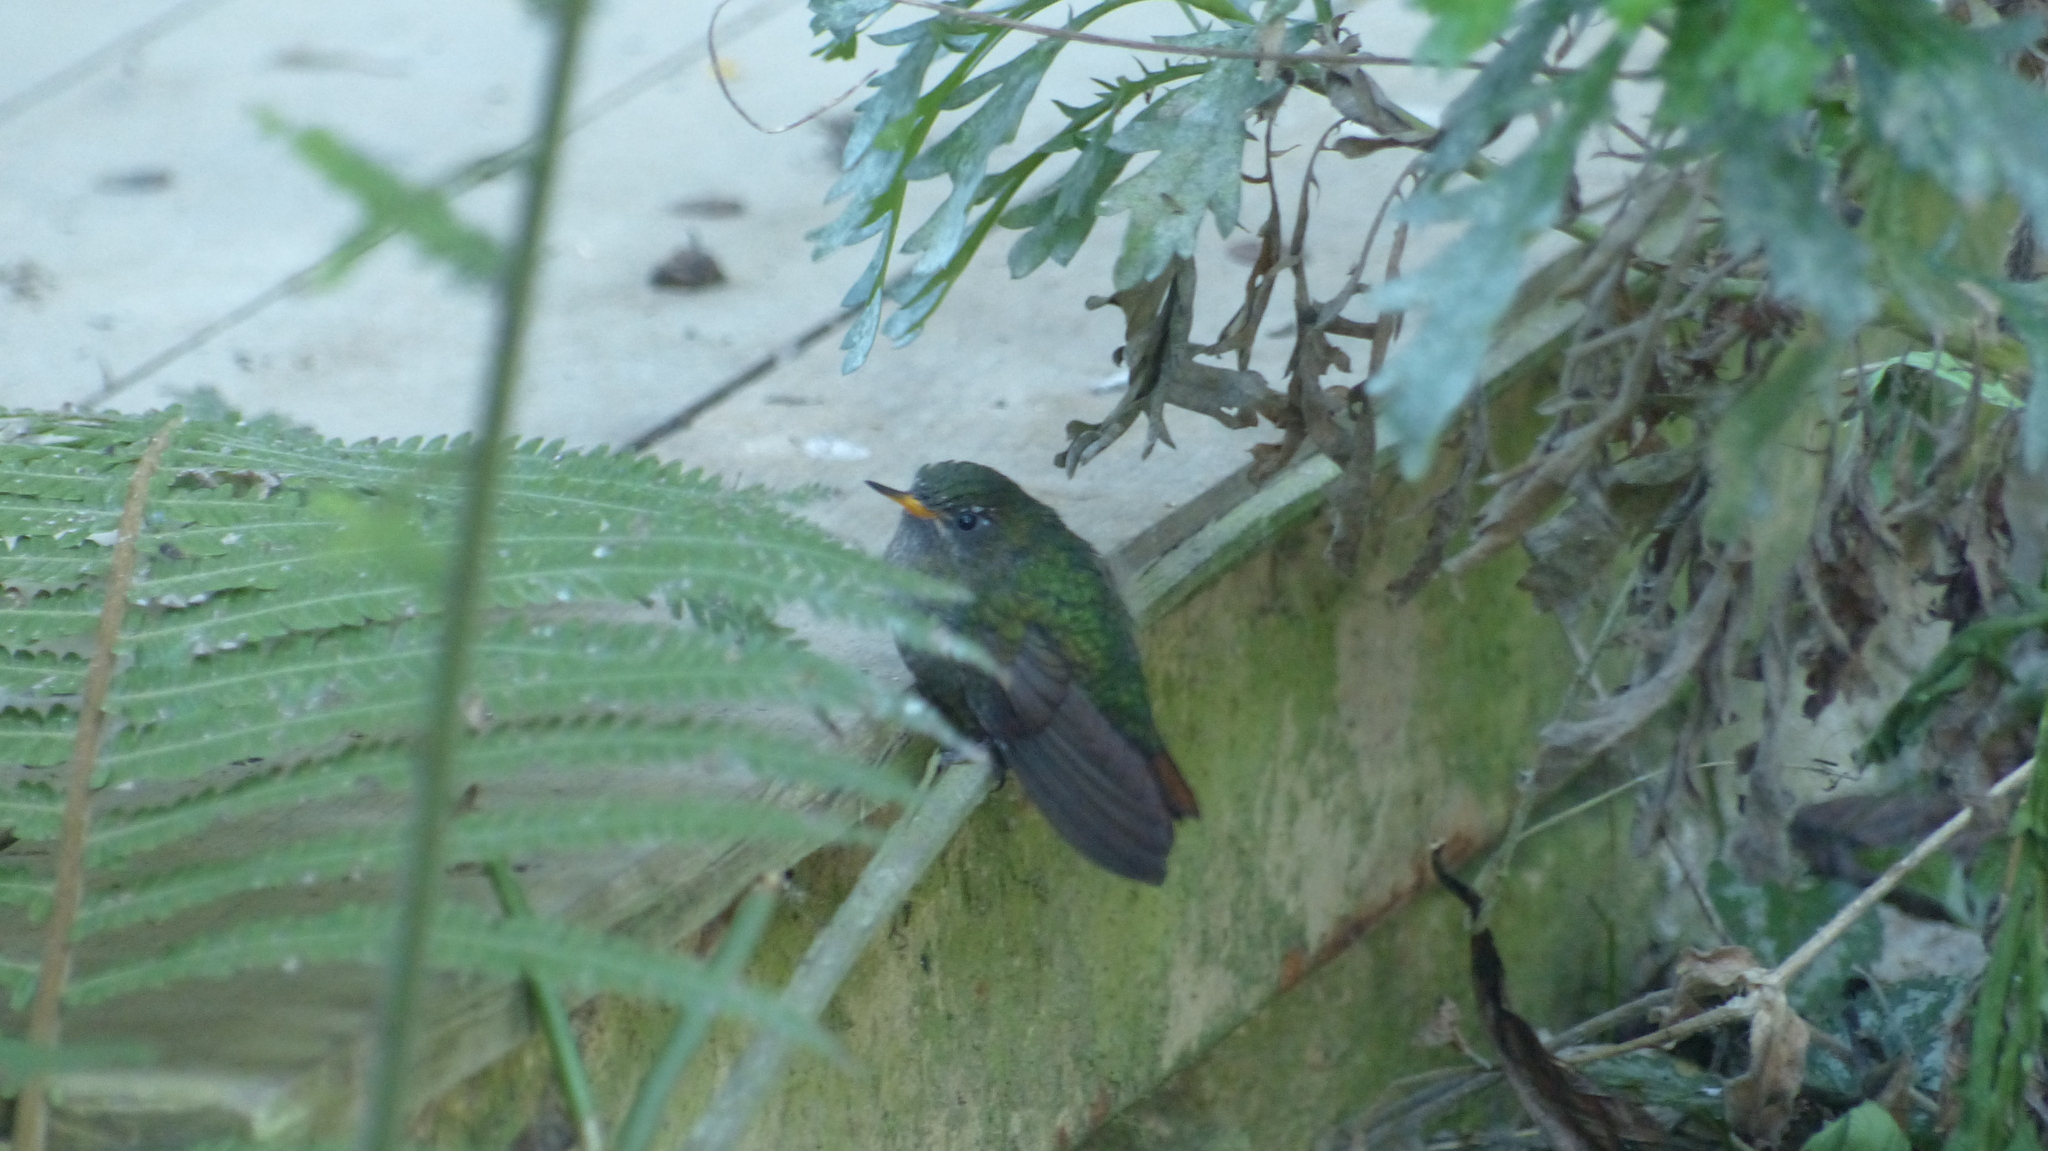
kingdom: Animalia
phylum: Chordata
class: Aves
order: Apodiformes
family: Trochilidae
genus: Metallura
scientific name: Metallura tyrianthina
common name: Tyrian metaltail
